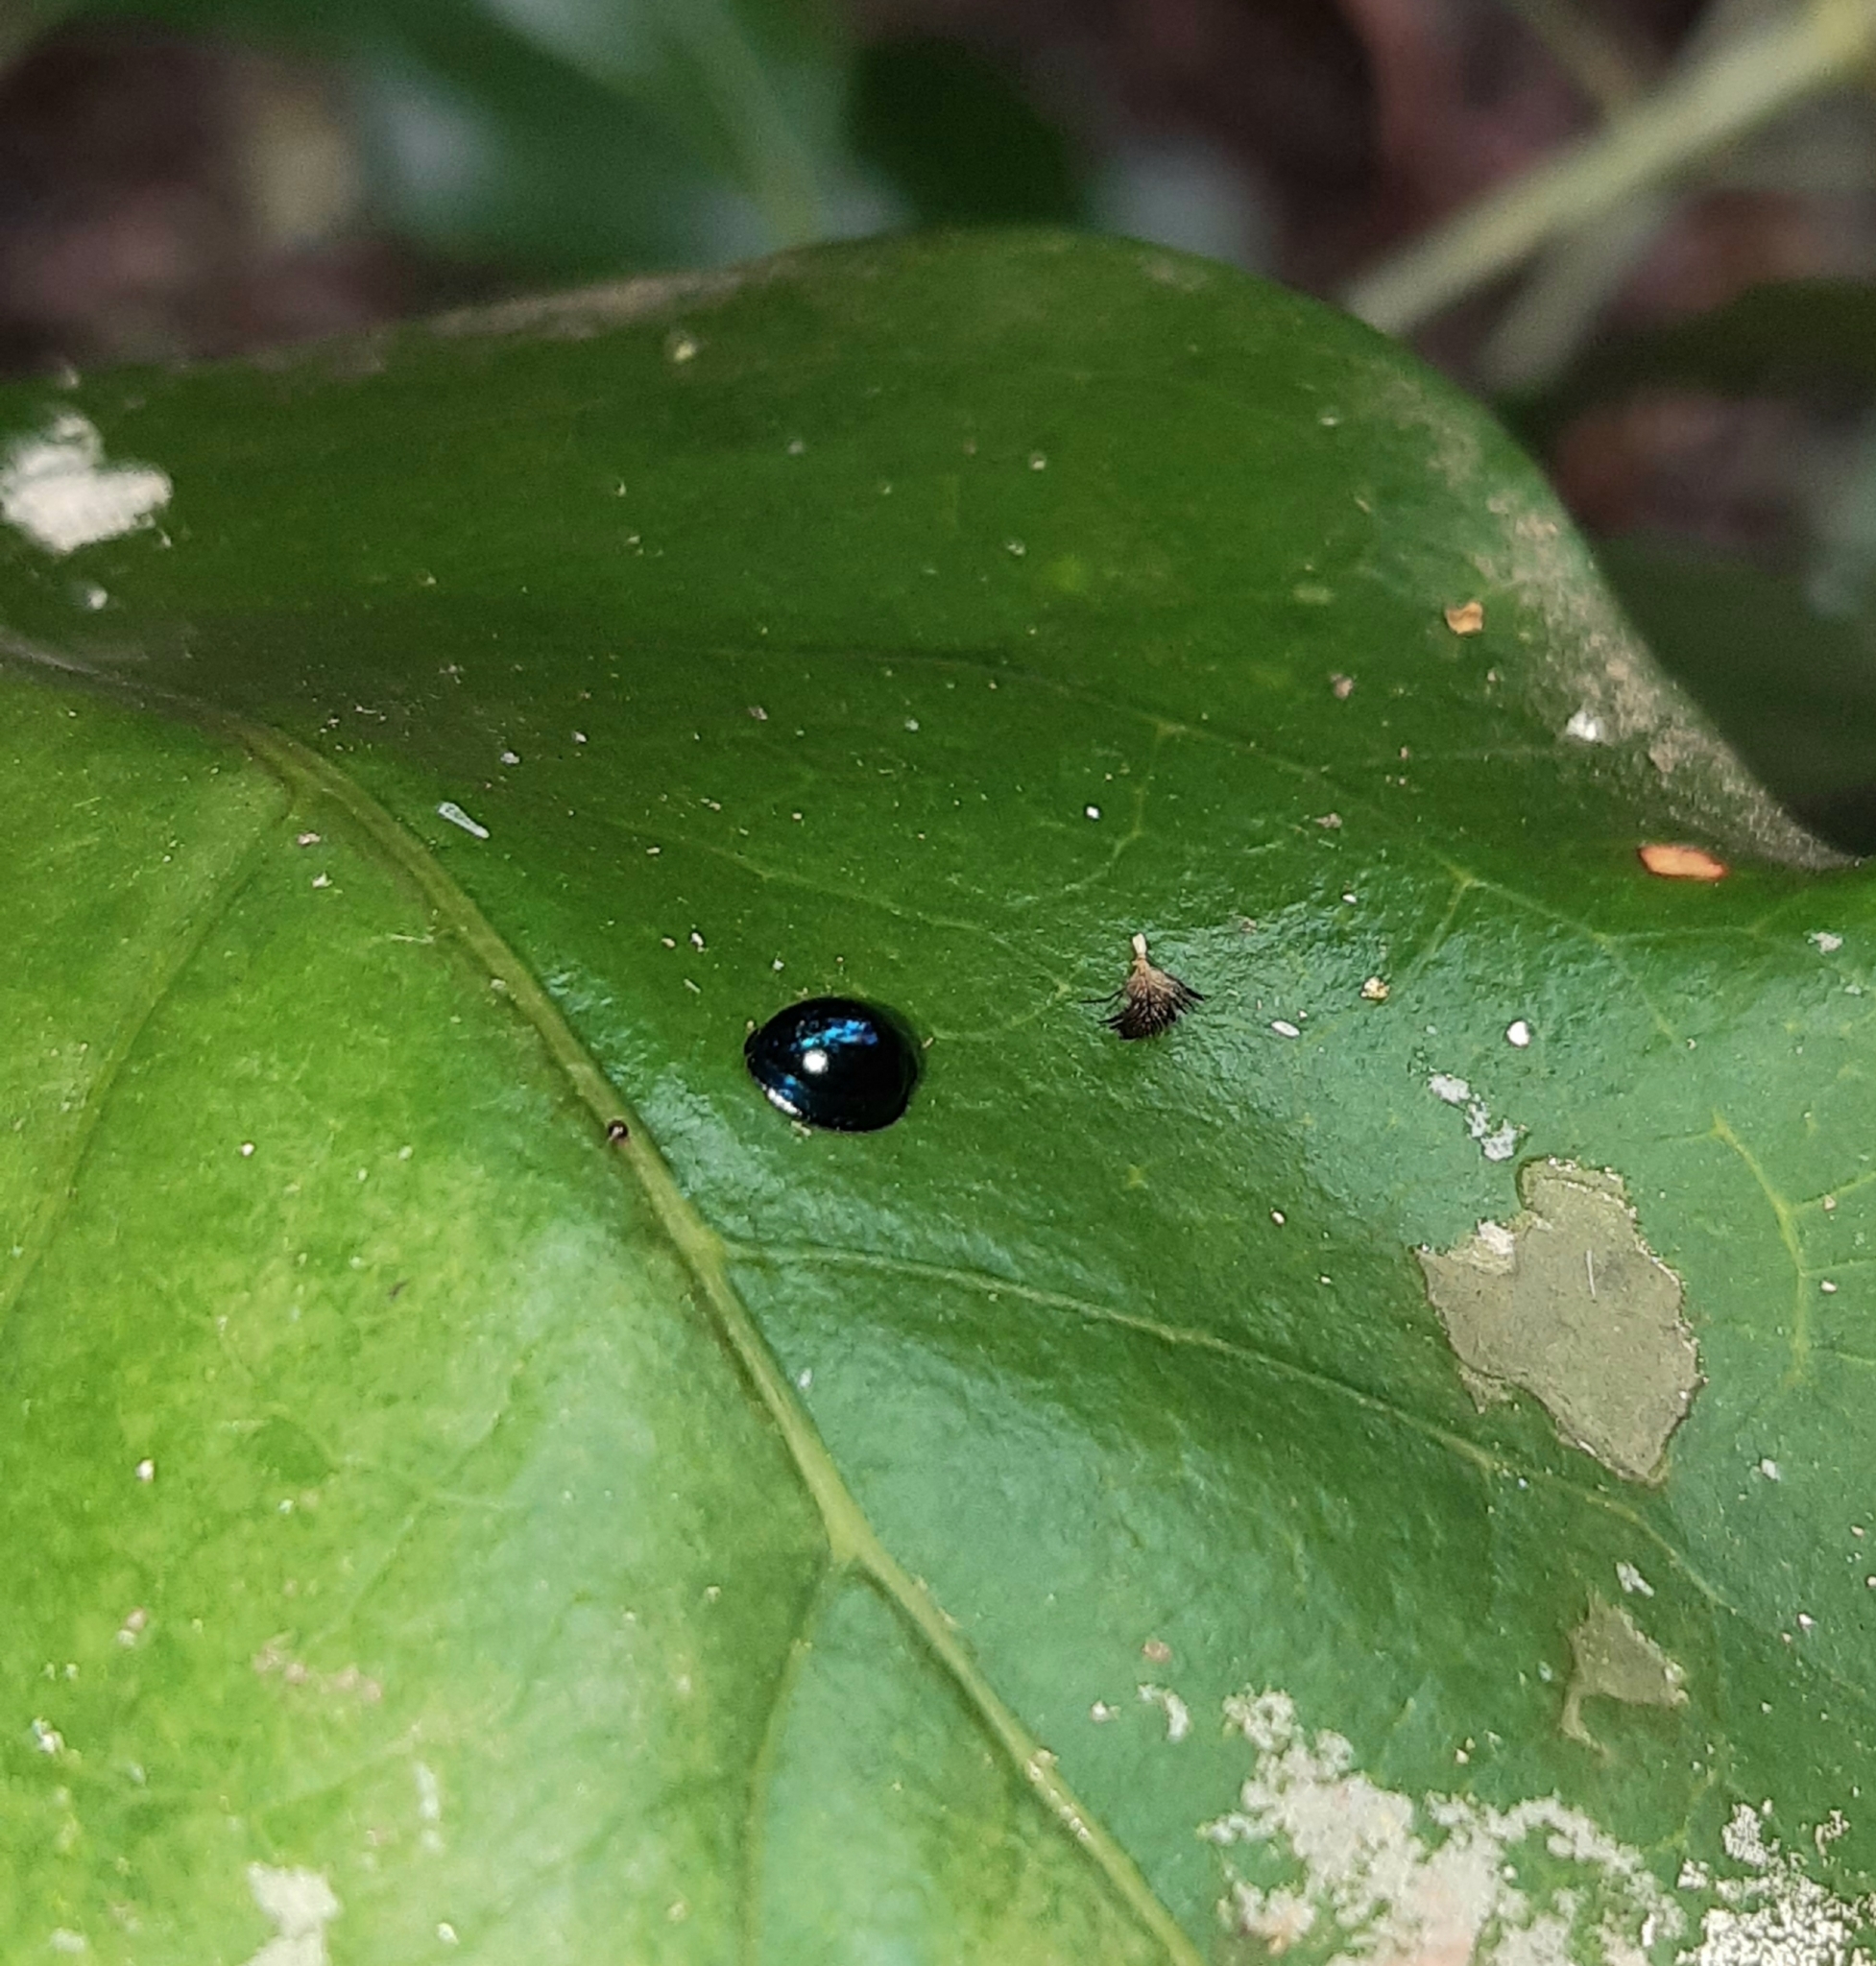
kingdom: Animalia
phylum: Arthropoda
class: Insecta
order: Coleoptera
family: Coccinellidae
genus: Halmus
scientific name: Halmus chalybeus
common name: Steel blue ladybird beetle
